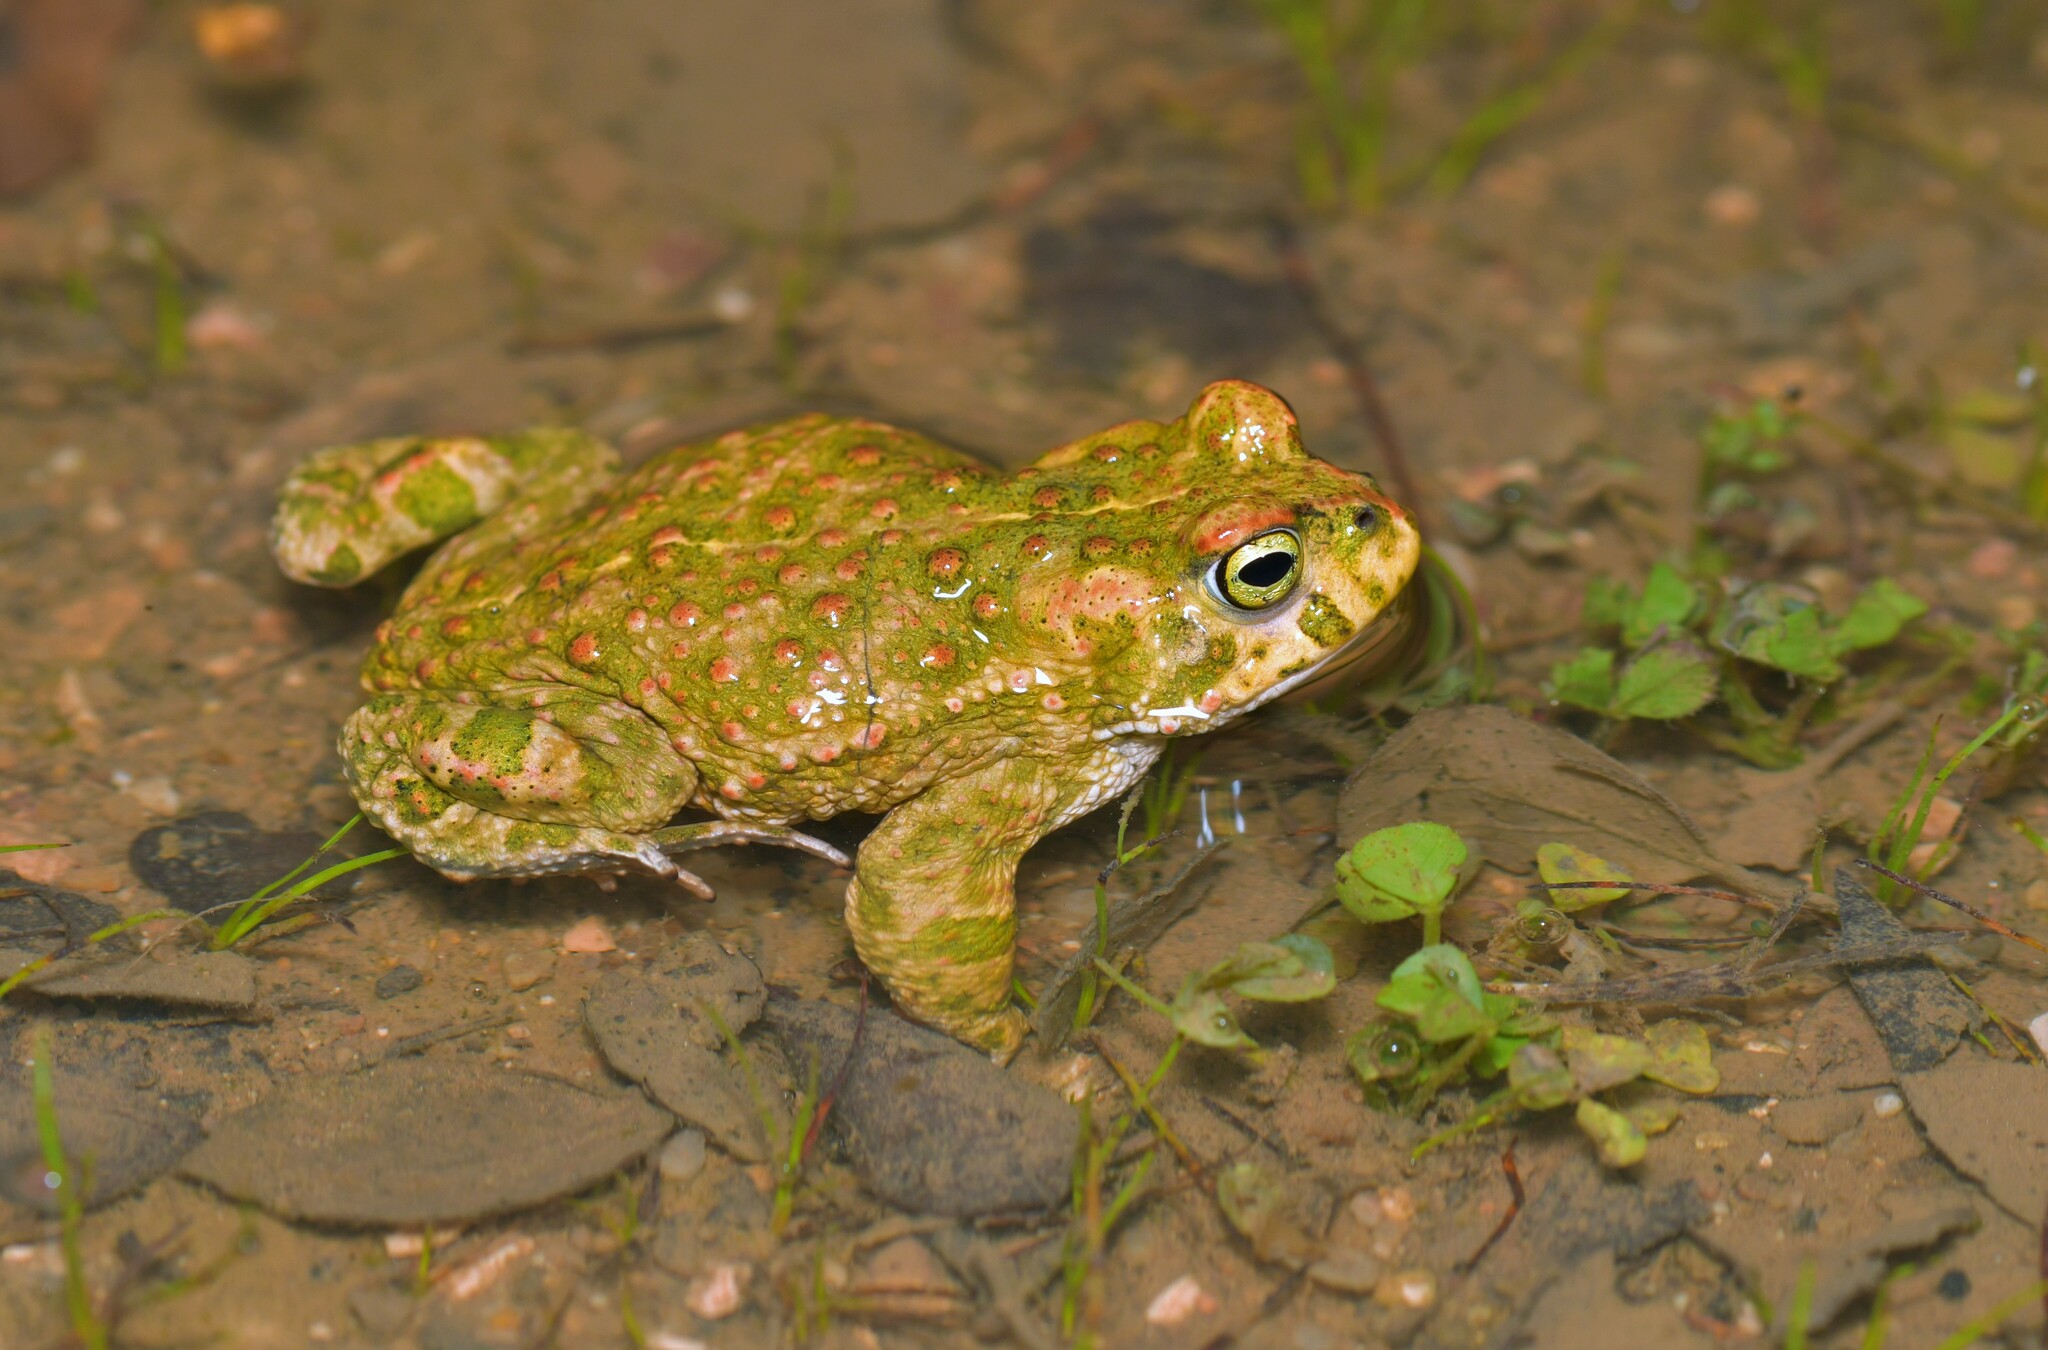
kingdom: Animalia
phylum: Chordata
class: Amphibia
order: Anura
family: Bufonidae
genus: Epidalea
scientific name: Epidalea calamita
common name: Natterjack toad
